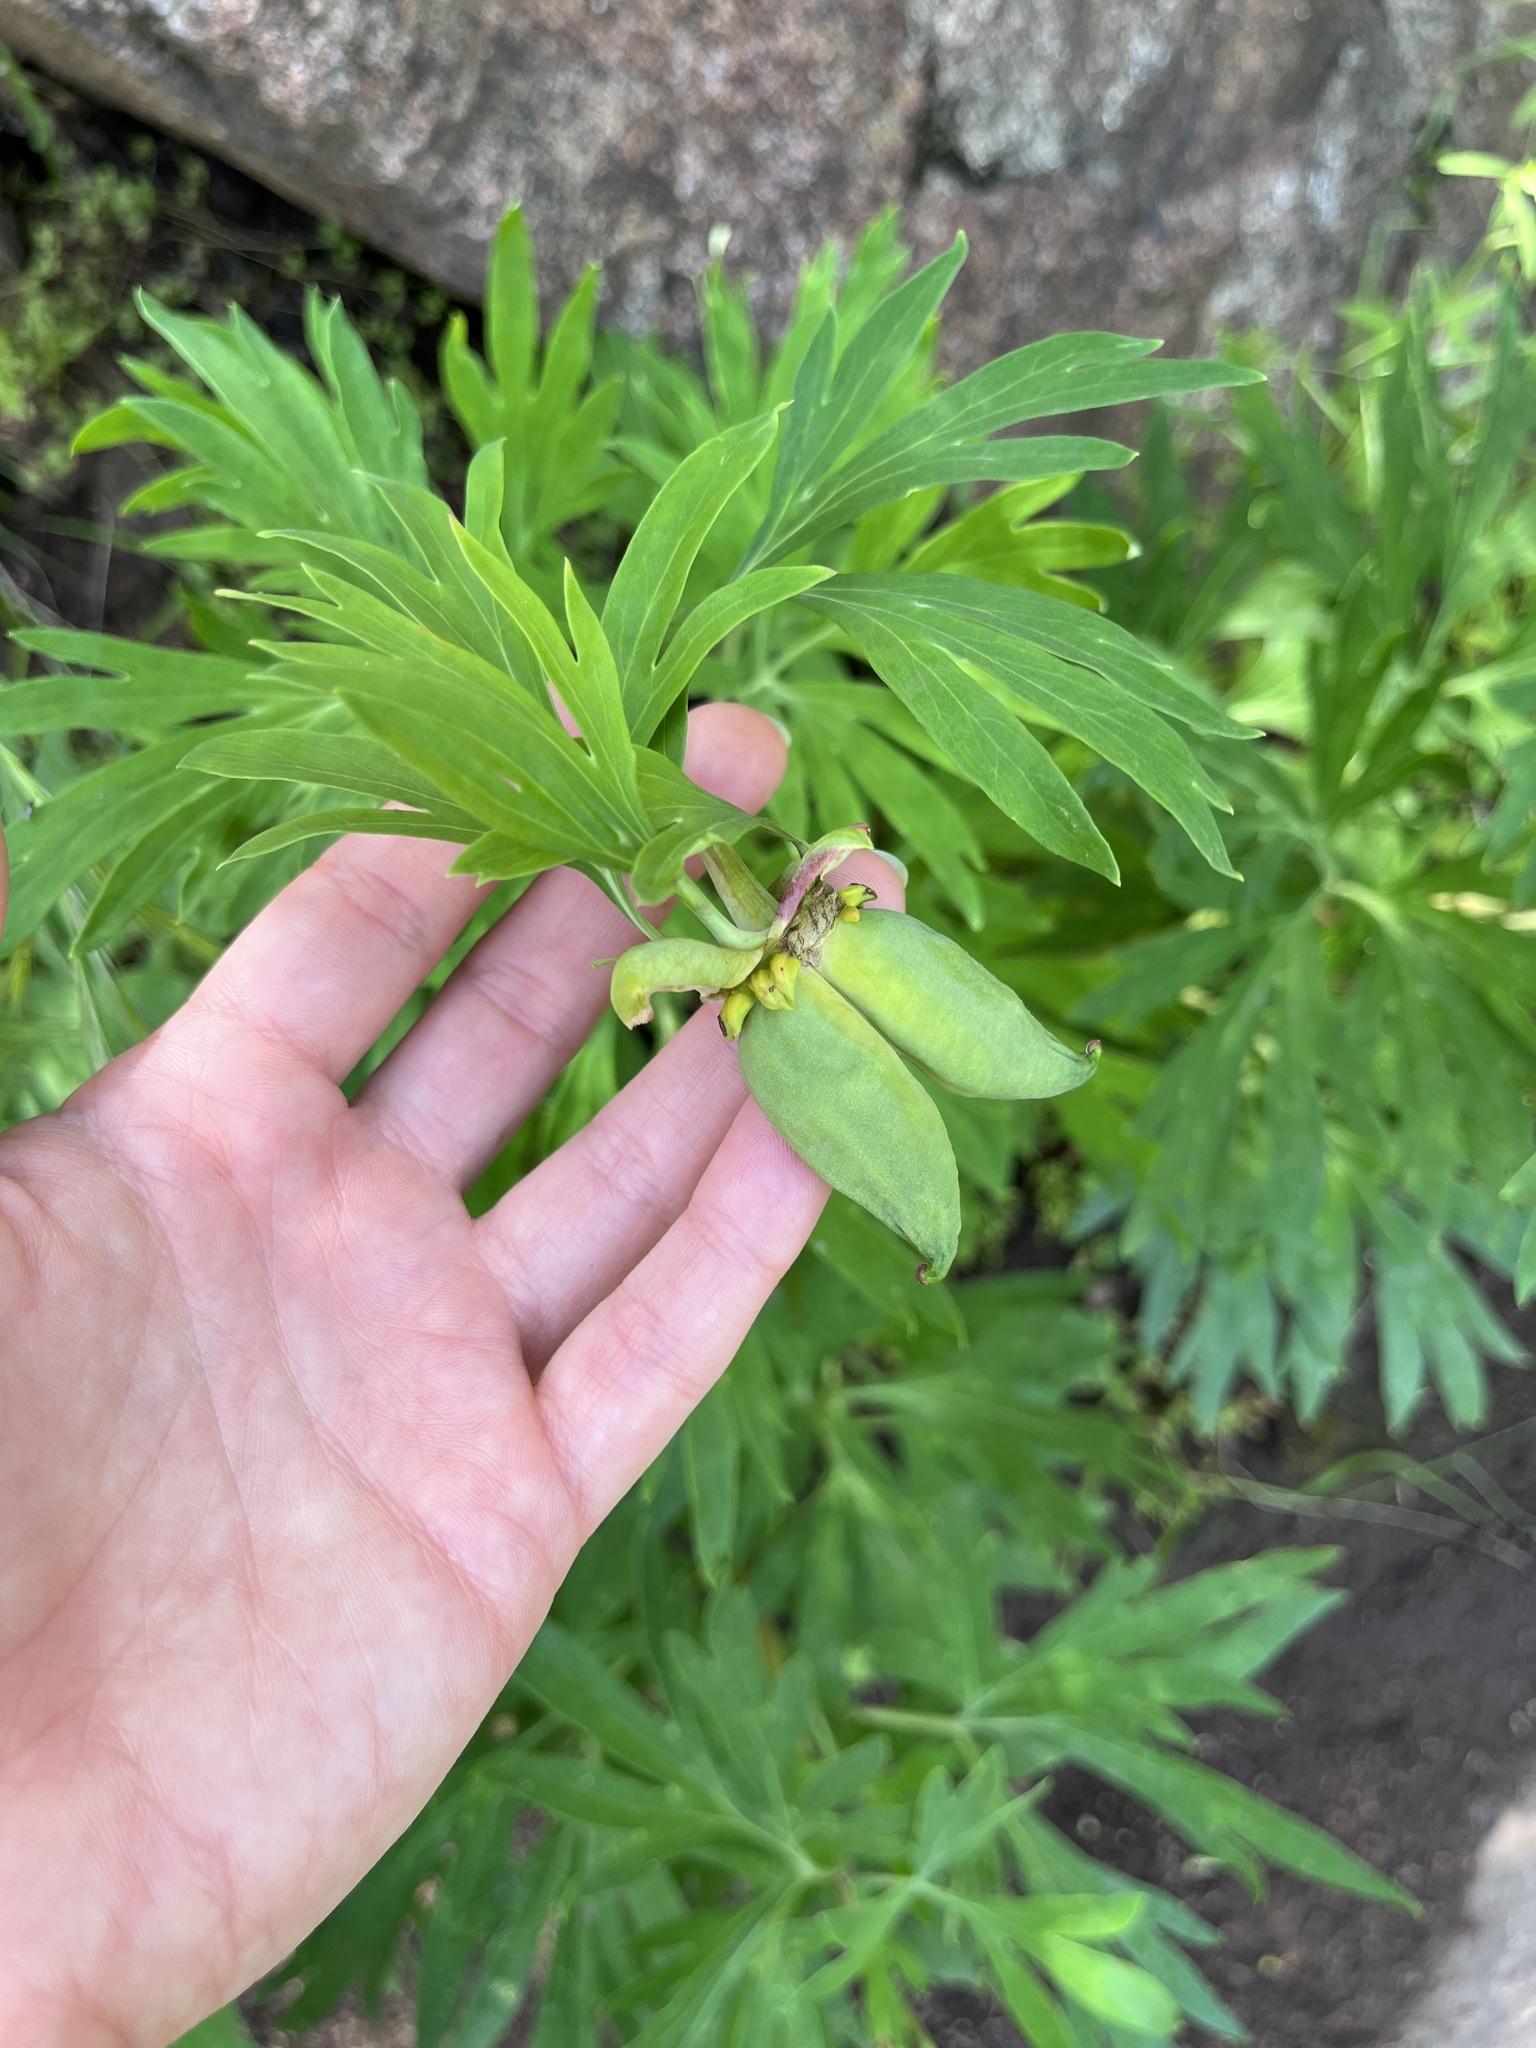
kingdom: Plantae
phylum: Tracheophyta
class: Magnoliopsida
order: Saxifragales
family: Paeoniaceae
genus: Paeonia
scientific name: Paeonia californica
